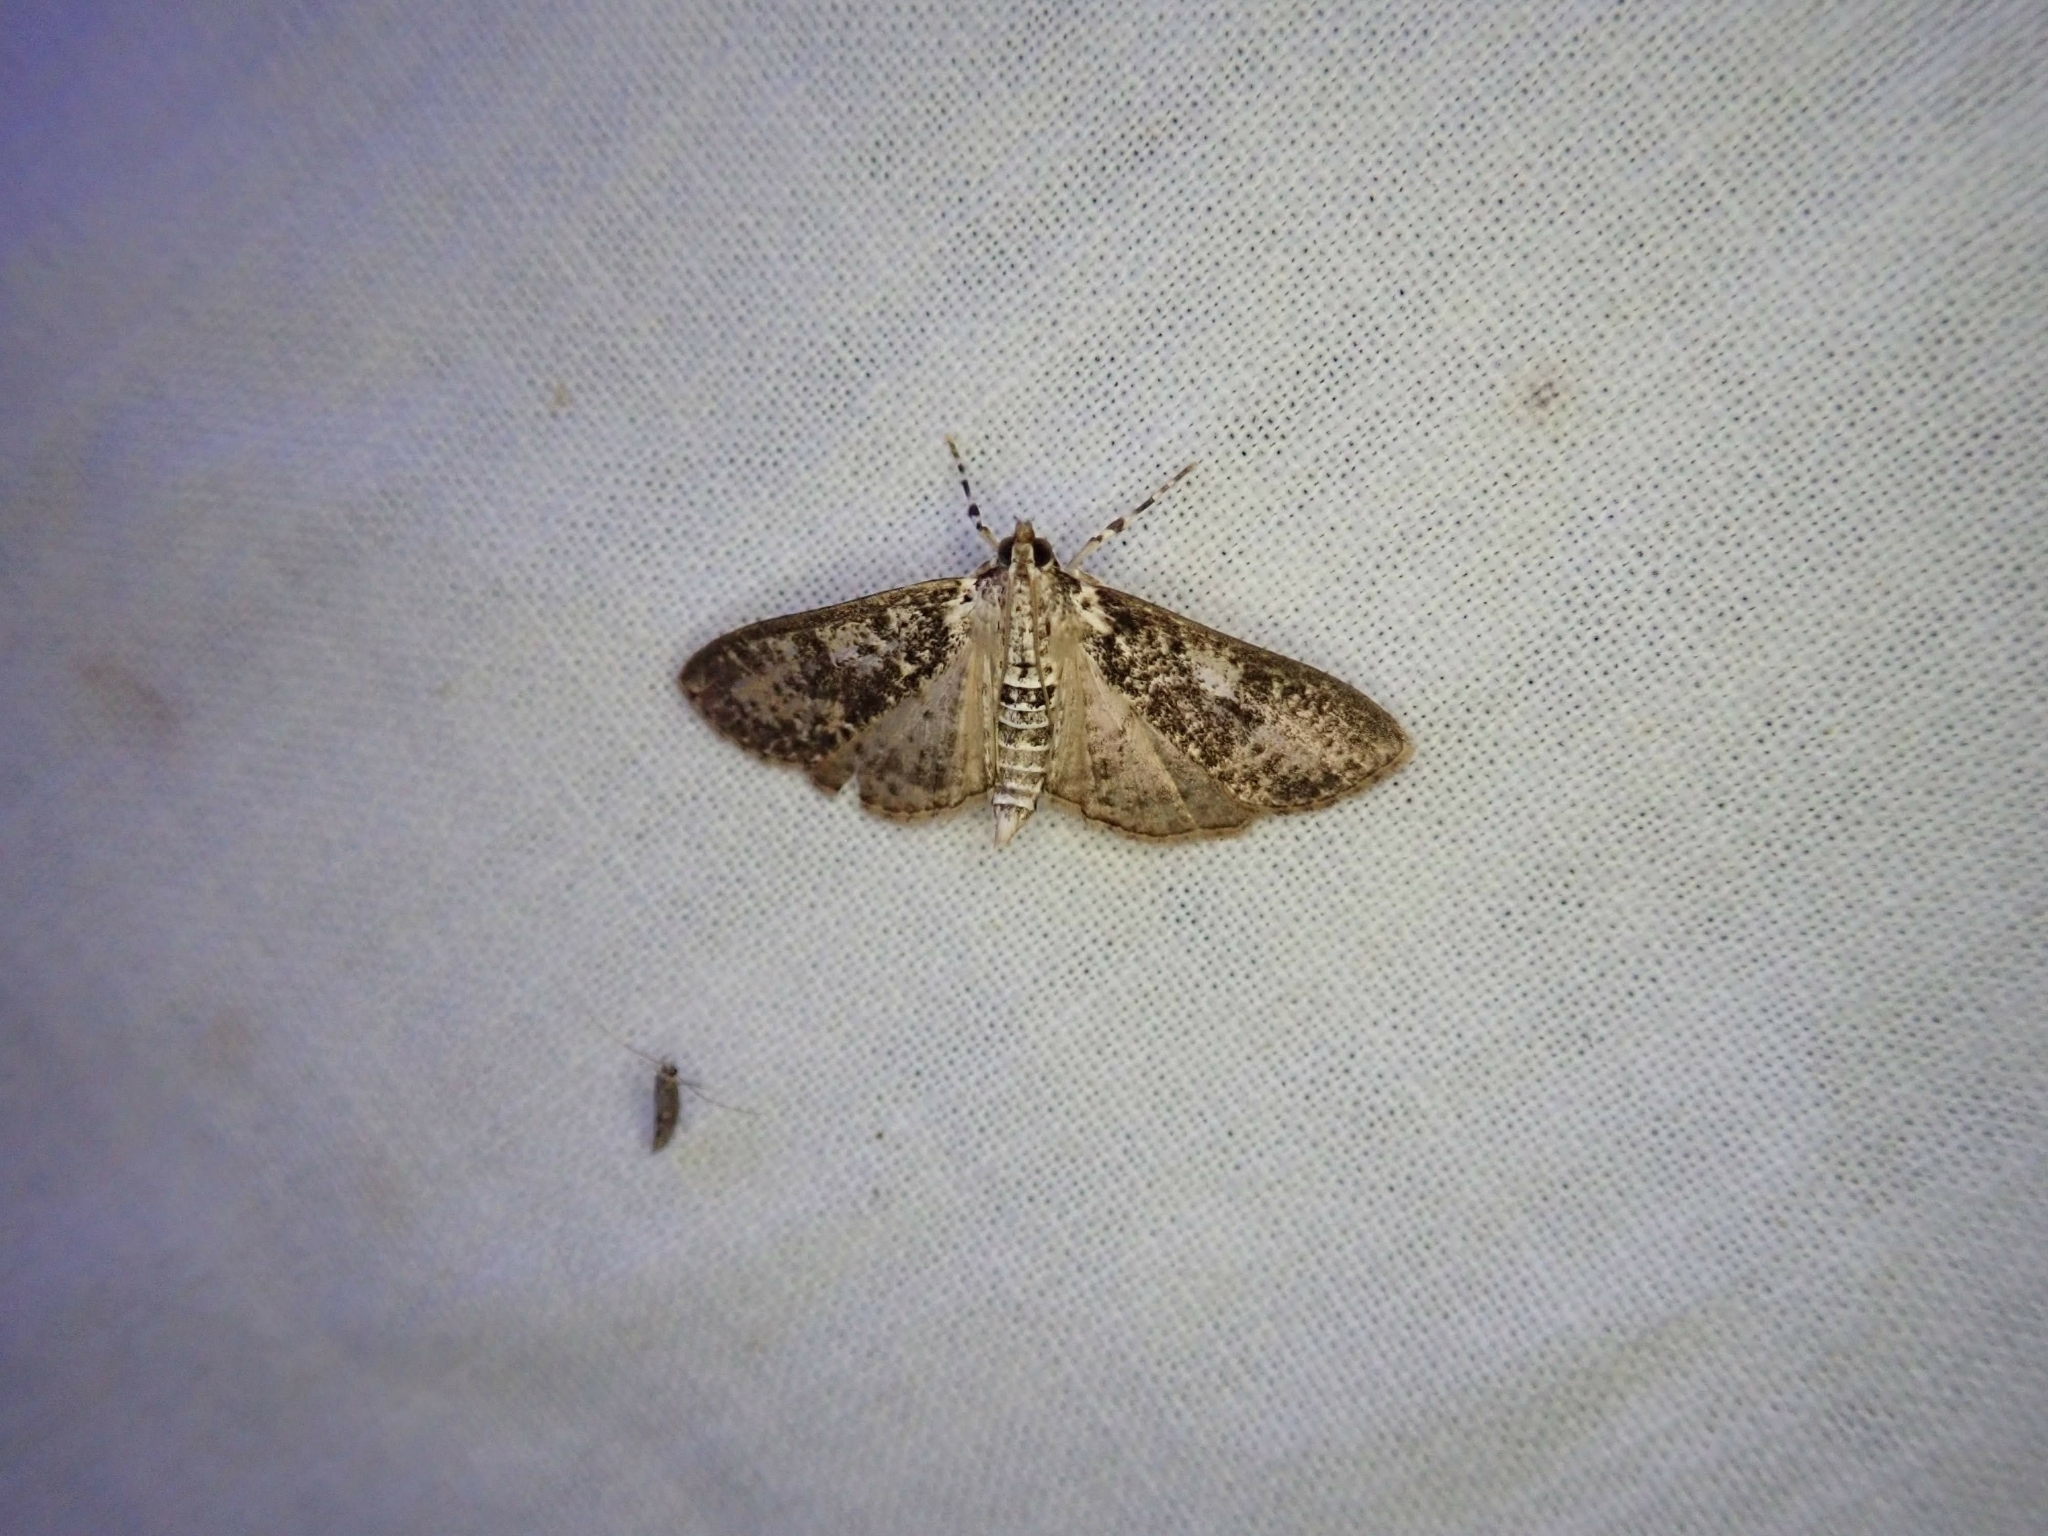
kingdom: Animalia
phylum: Arthropoda
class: Insecta
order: Lepidoptera
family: Crambidae
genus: Palpita
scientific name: Palpita magniferalis
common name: Splendid palpita moth
